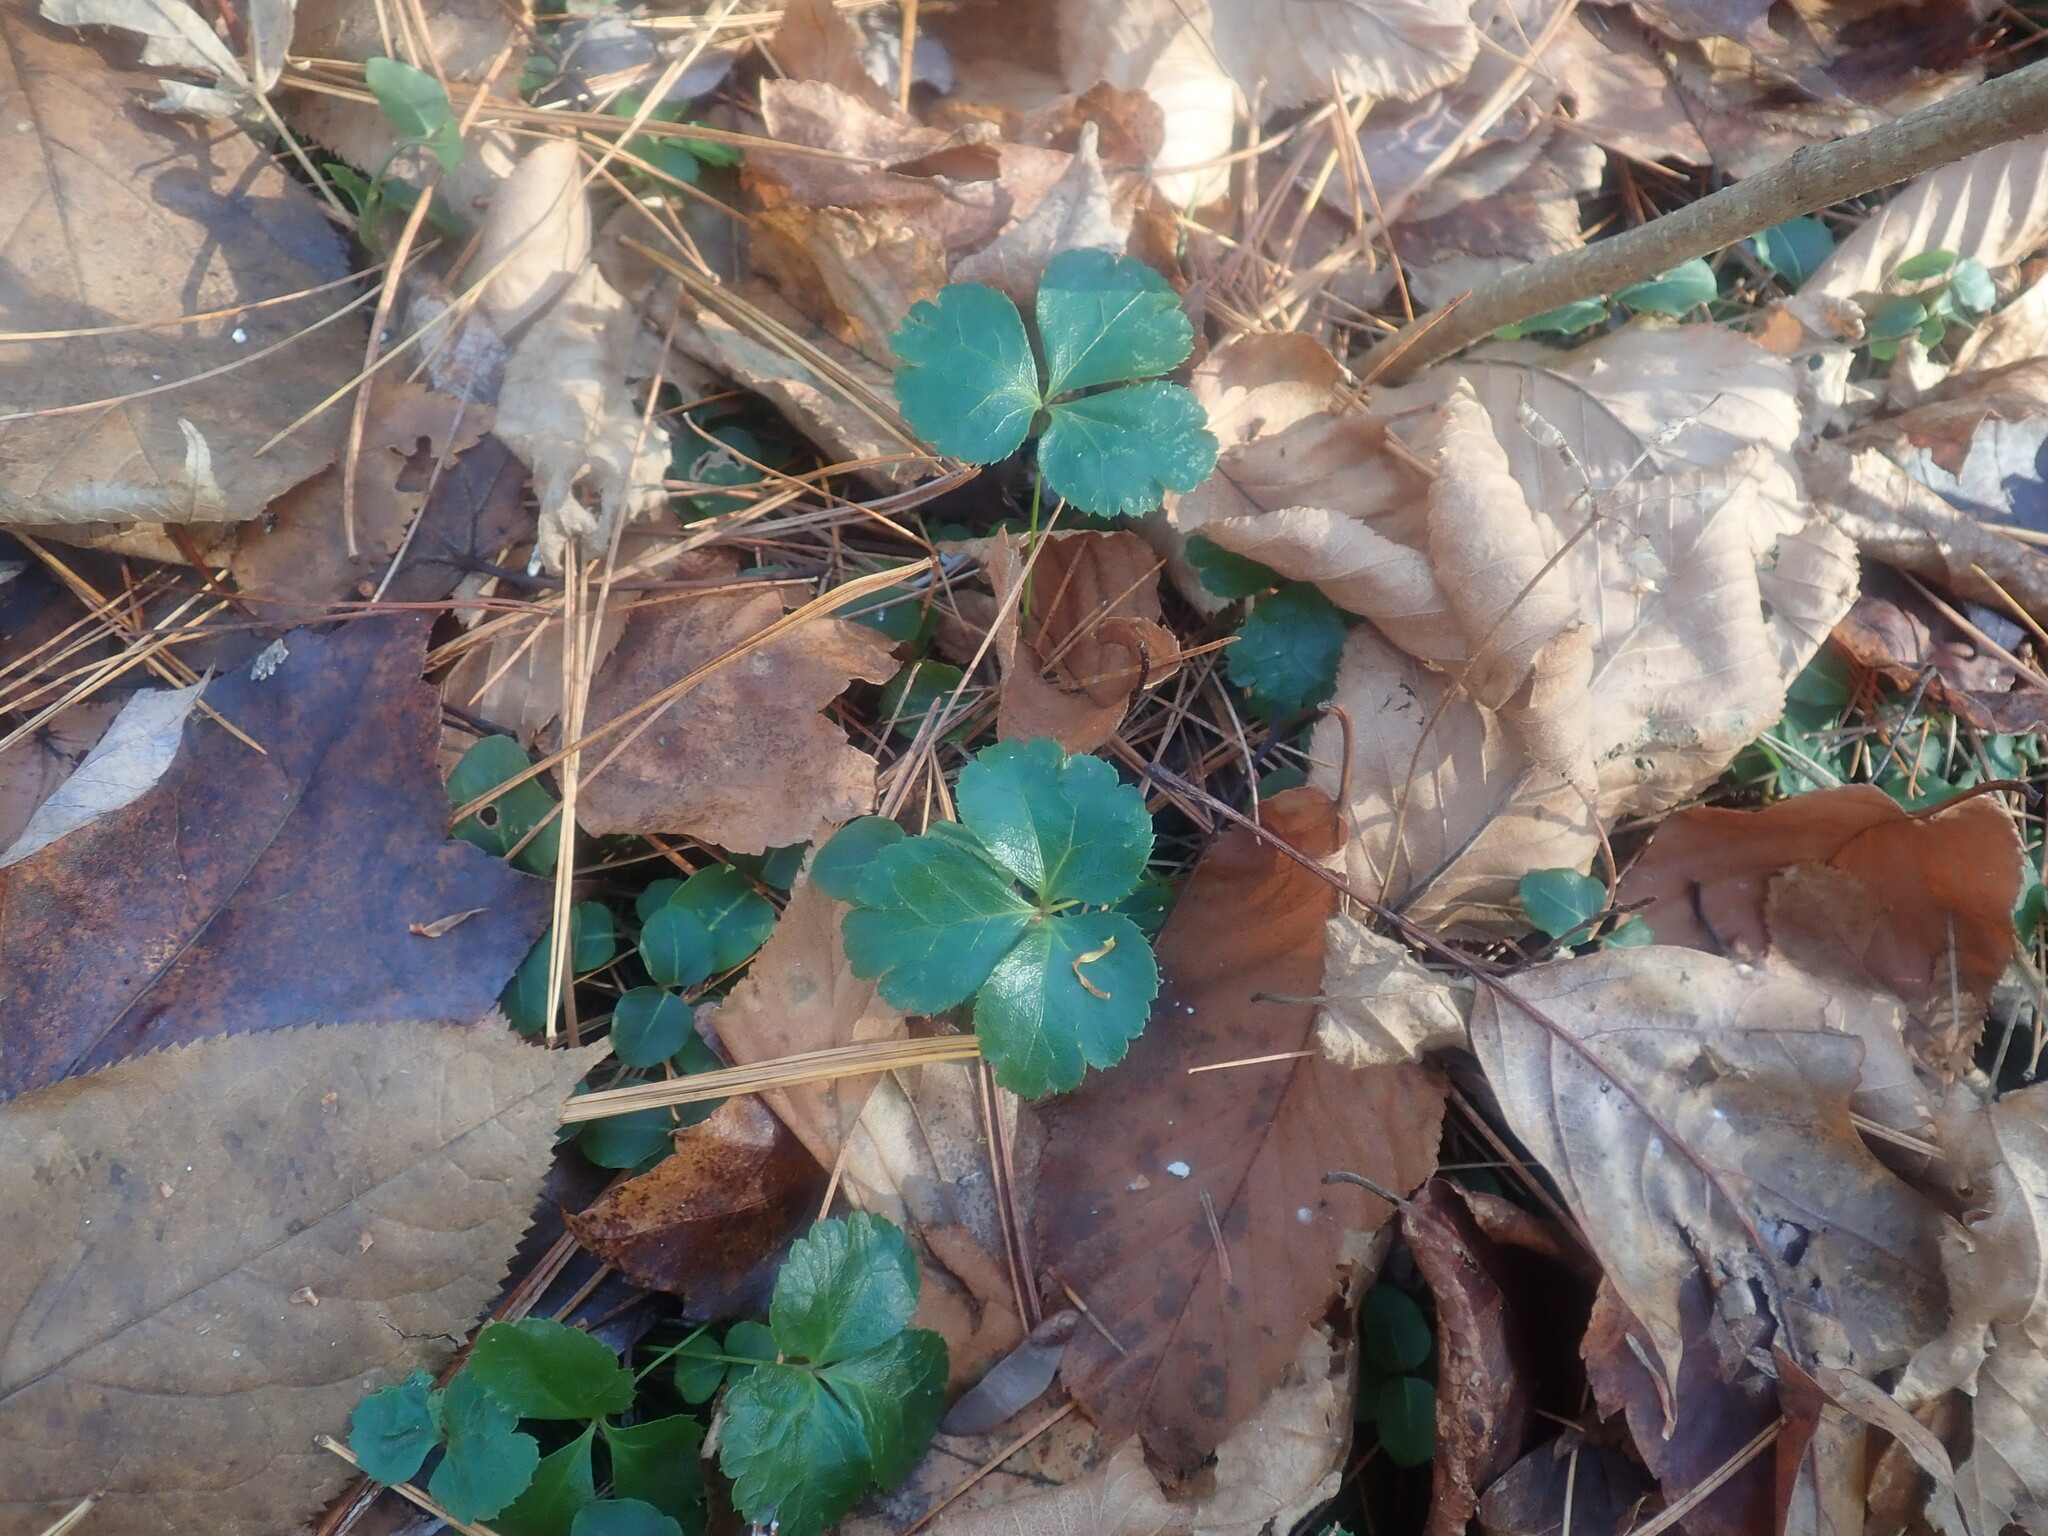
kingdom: Plantae
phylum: Tracheophyta
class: Magnoliopsida
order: Ranunculales
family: Ranunculaceae
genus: Coptis
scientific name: Coptis trifolia
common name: Canker-root
